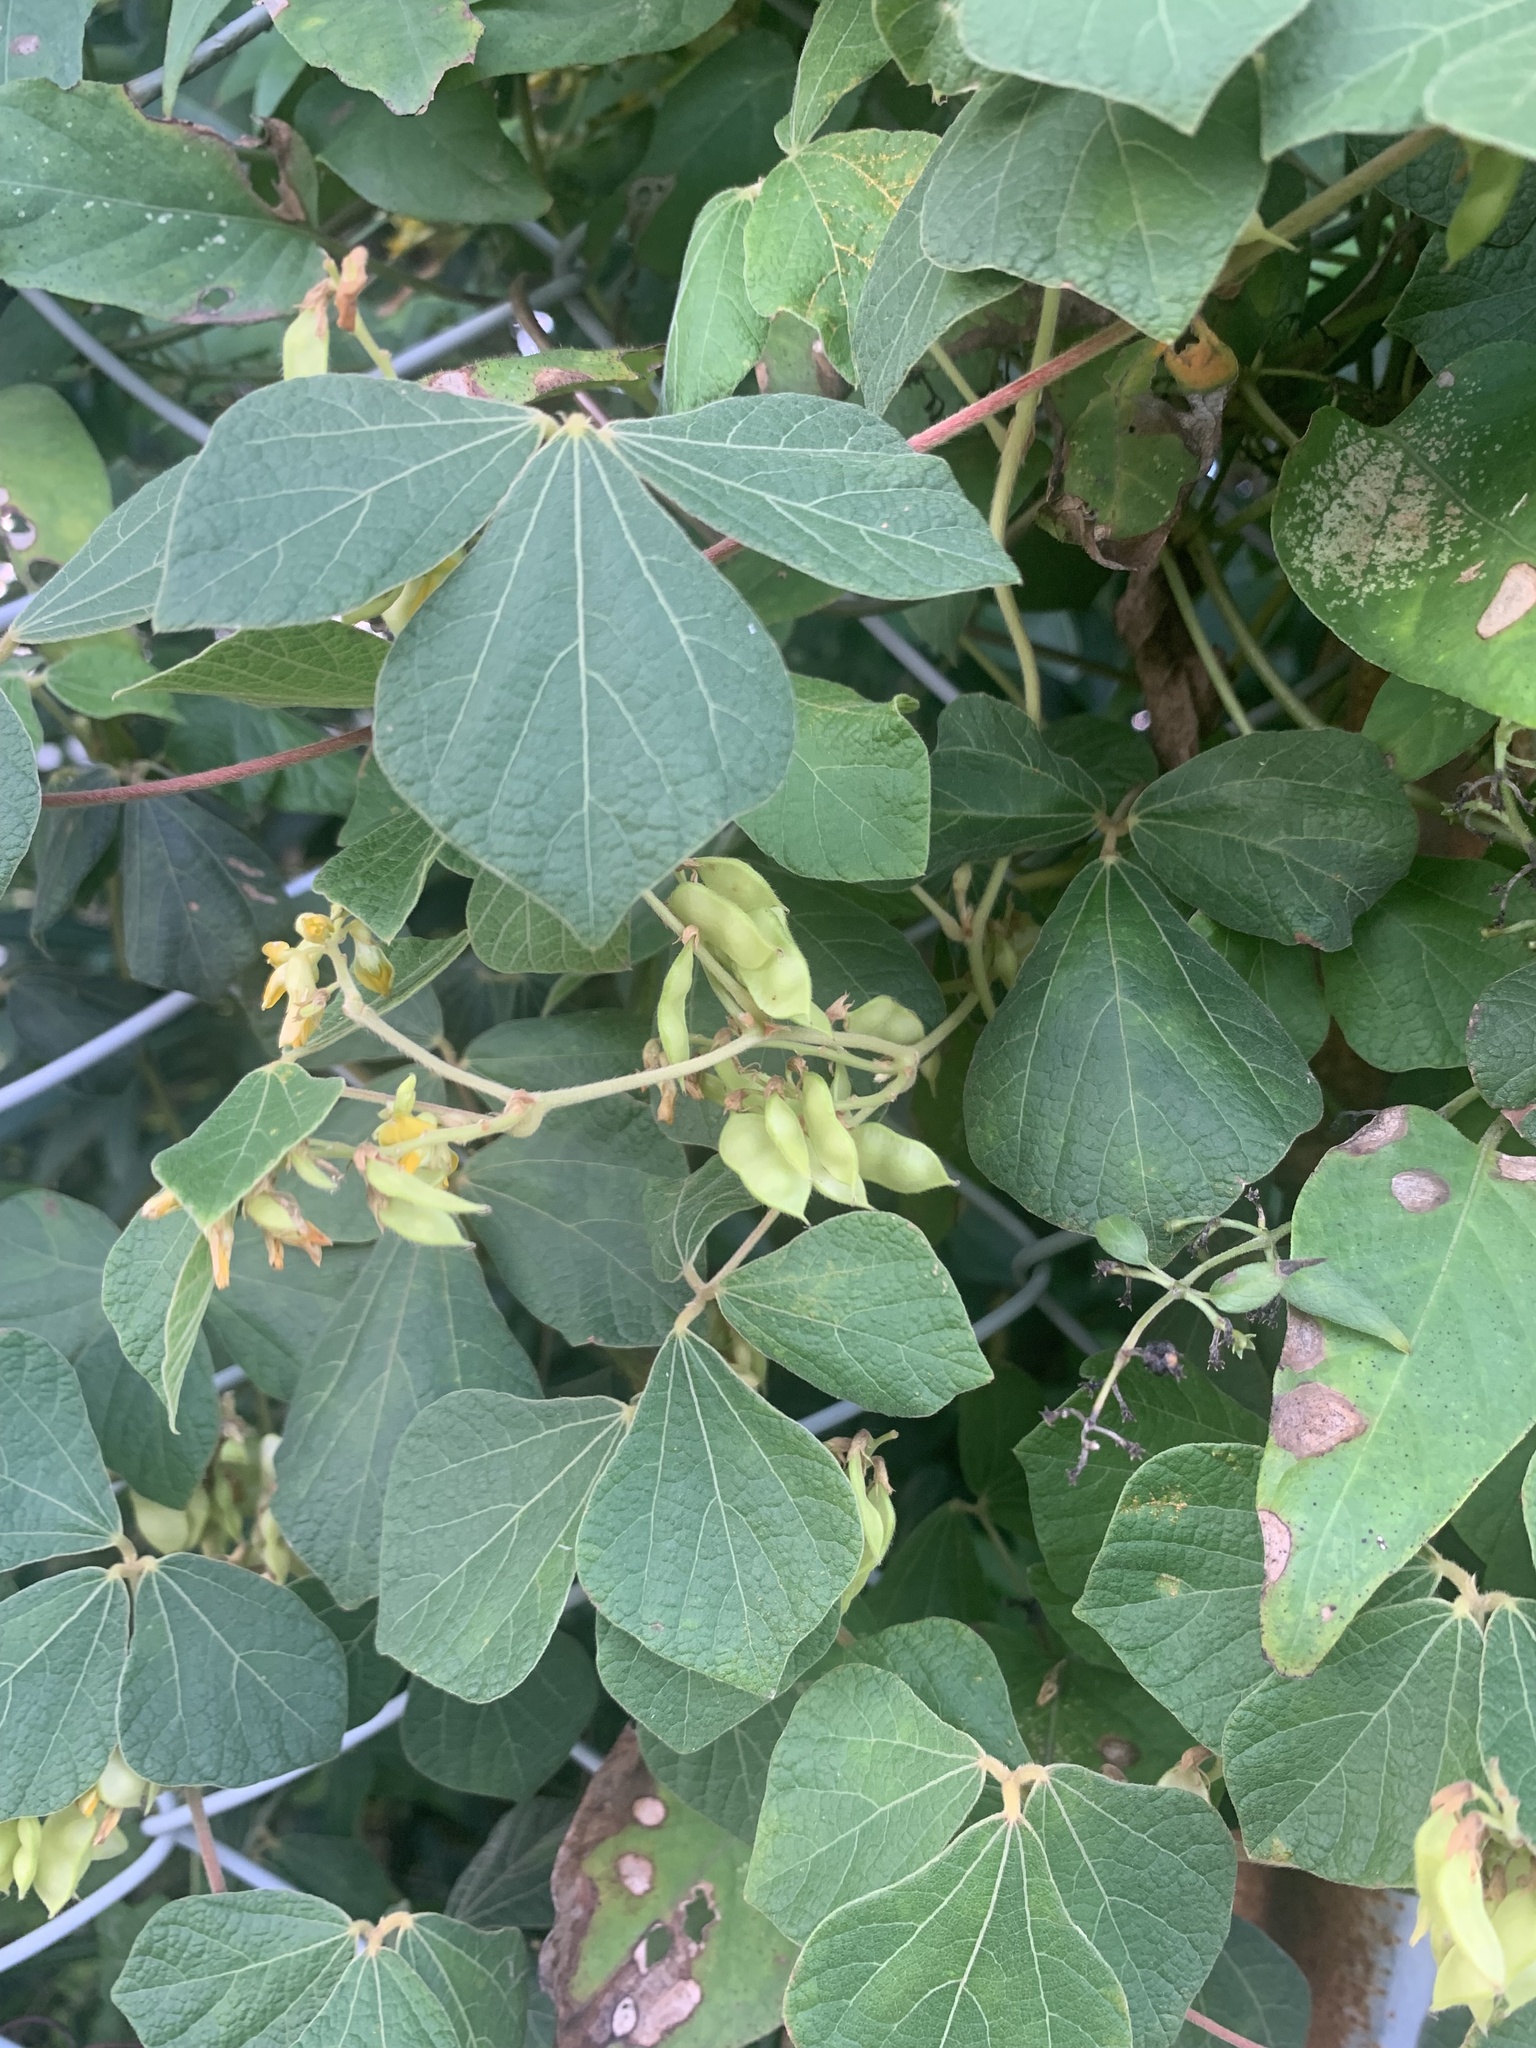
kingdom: Plantae
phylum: Tracheophyta
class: Magnoliopsida
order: Fabales
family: Fabaceae
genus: Rhynchosia
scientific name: Rhynchosia volubilis
